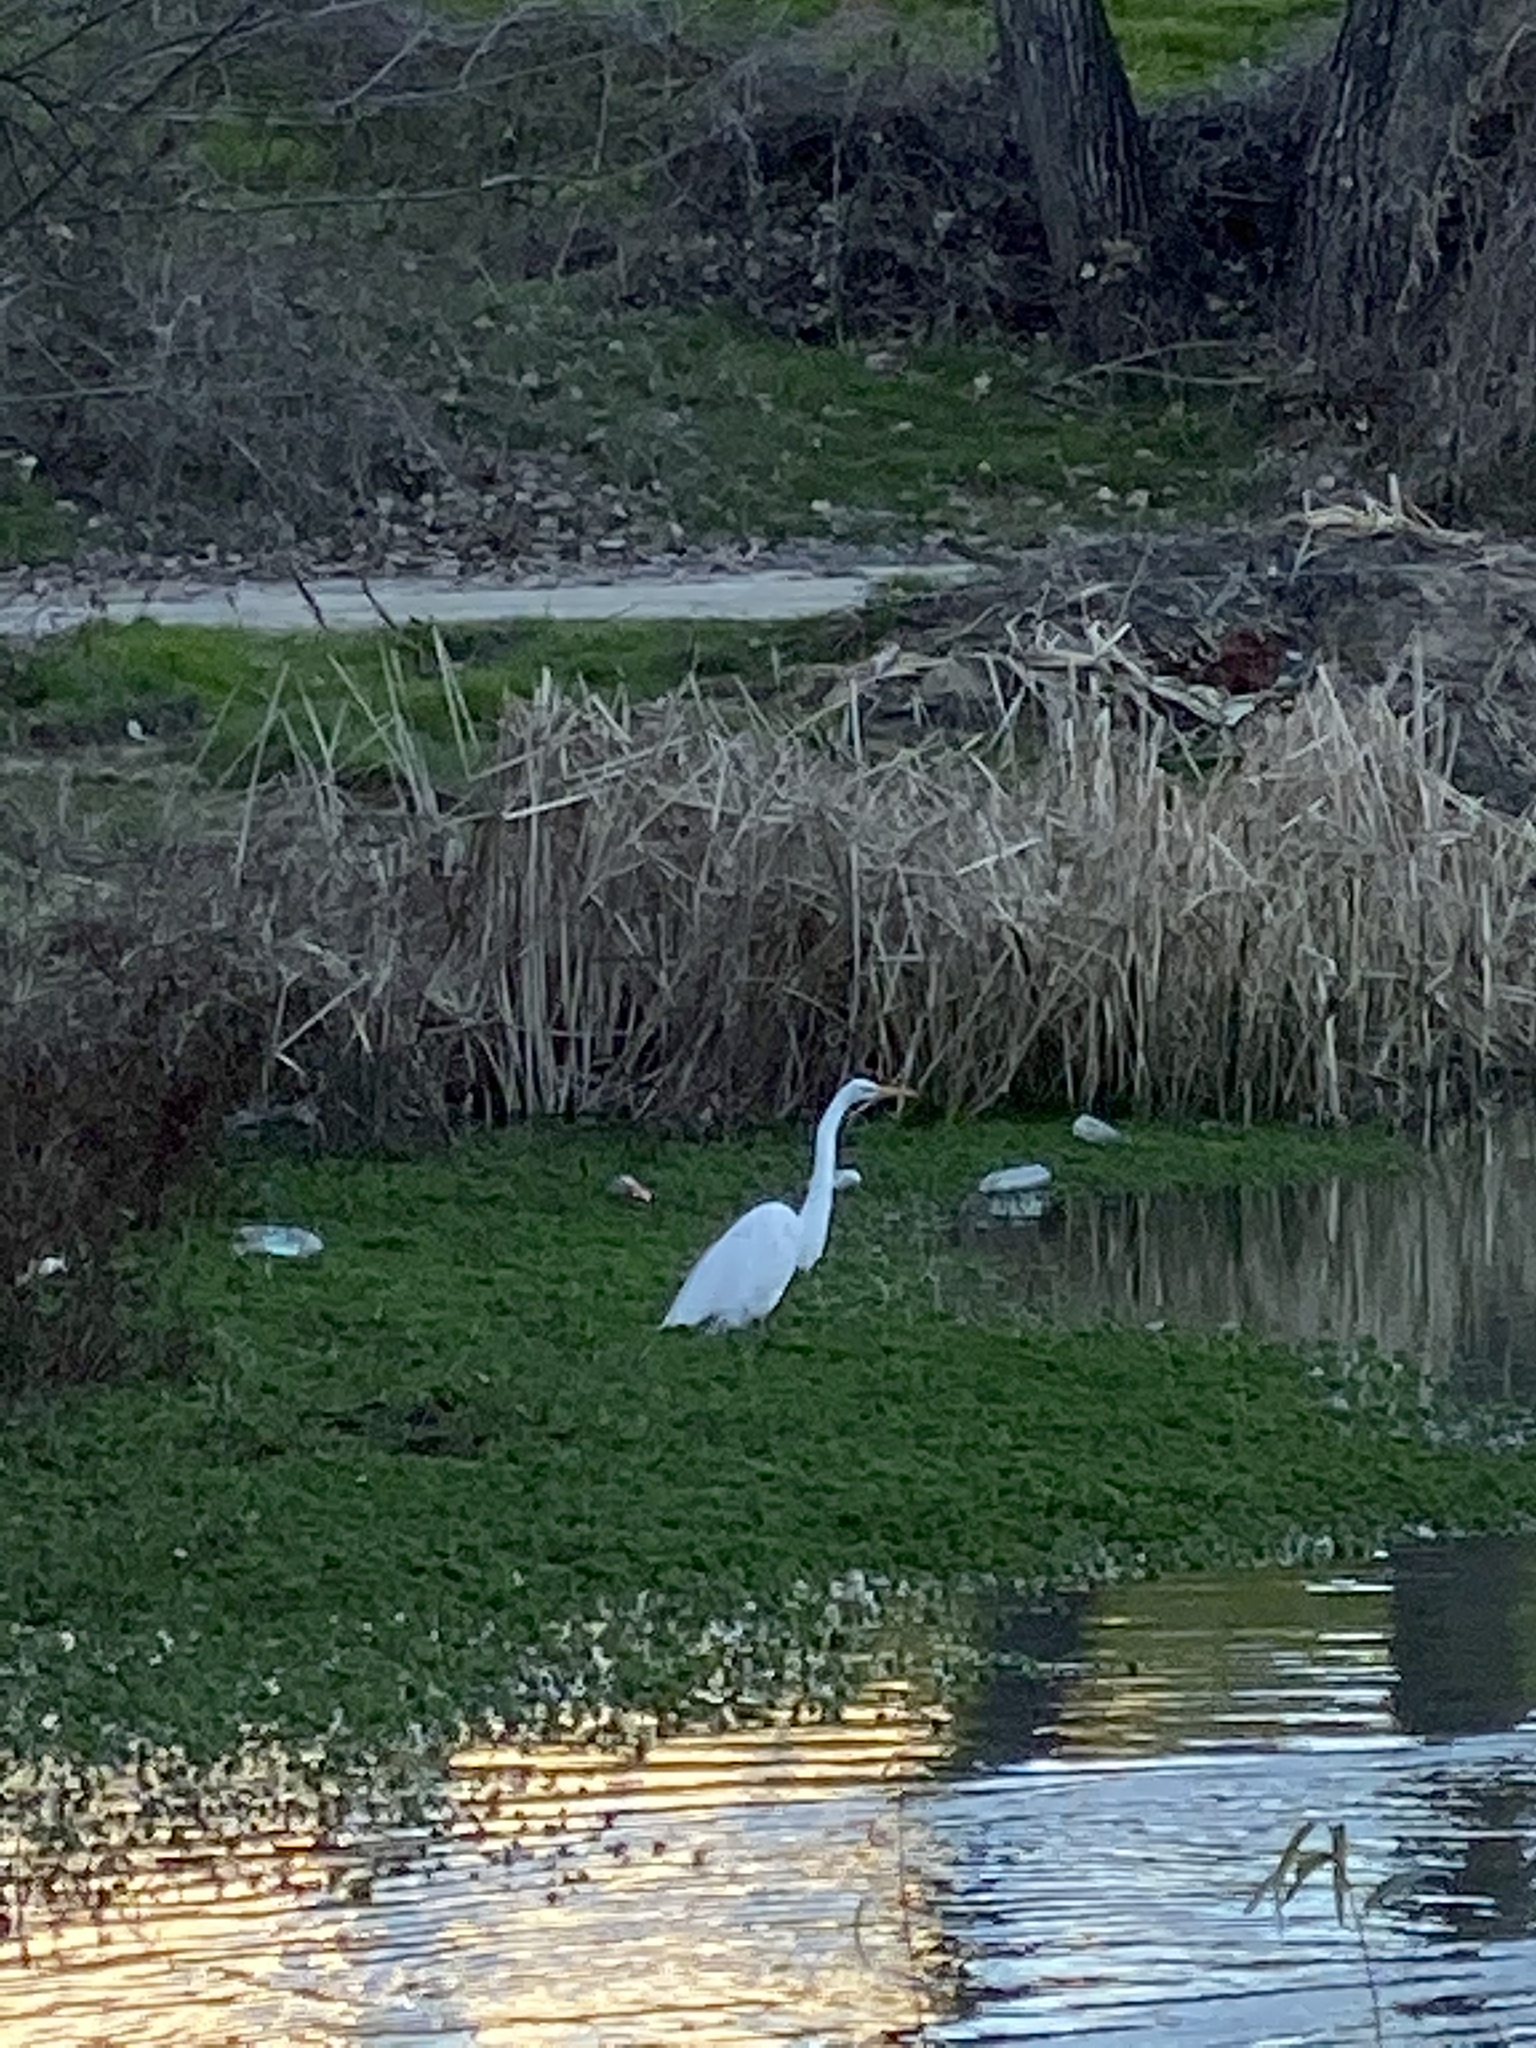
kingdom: Animalia
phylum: Chordata
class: Aves
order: Pelecaniformes
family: Ardeidae
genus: Ardea
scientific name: Ardea alba
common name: Great egret
